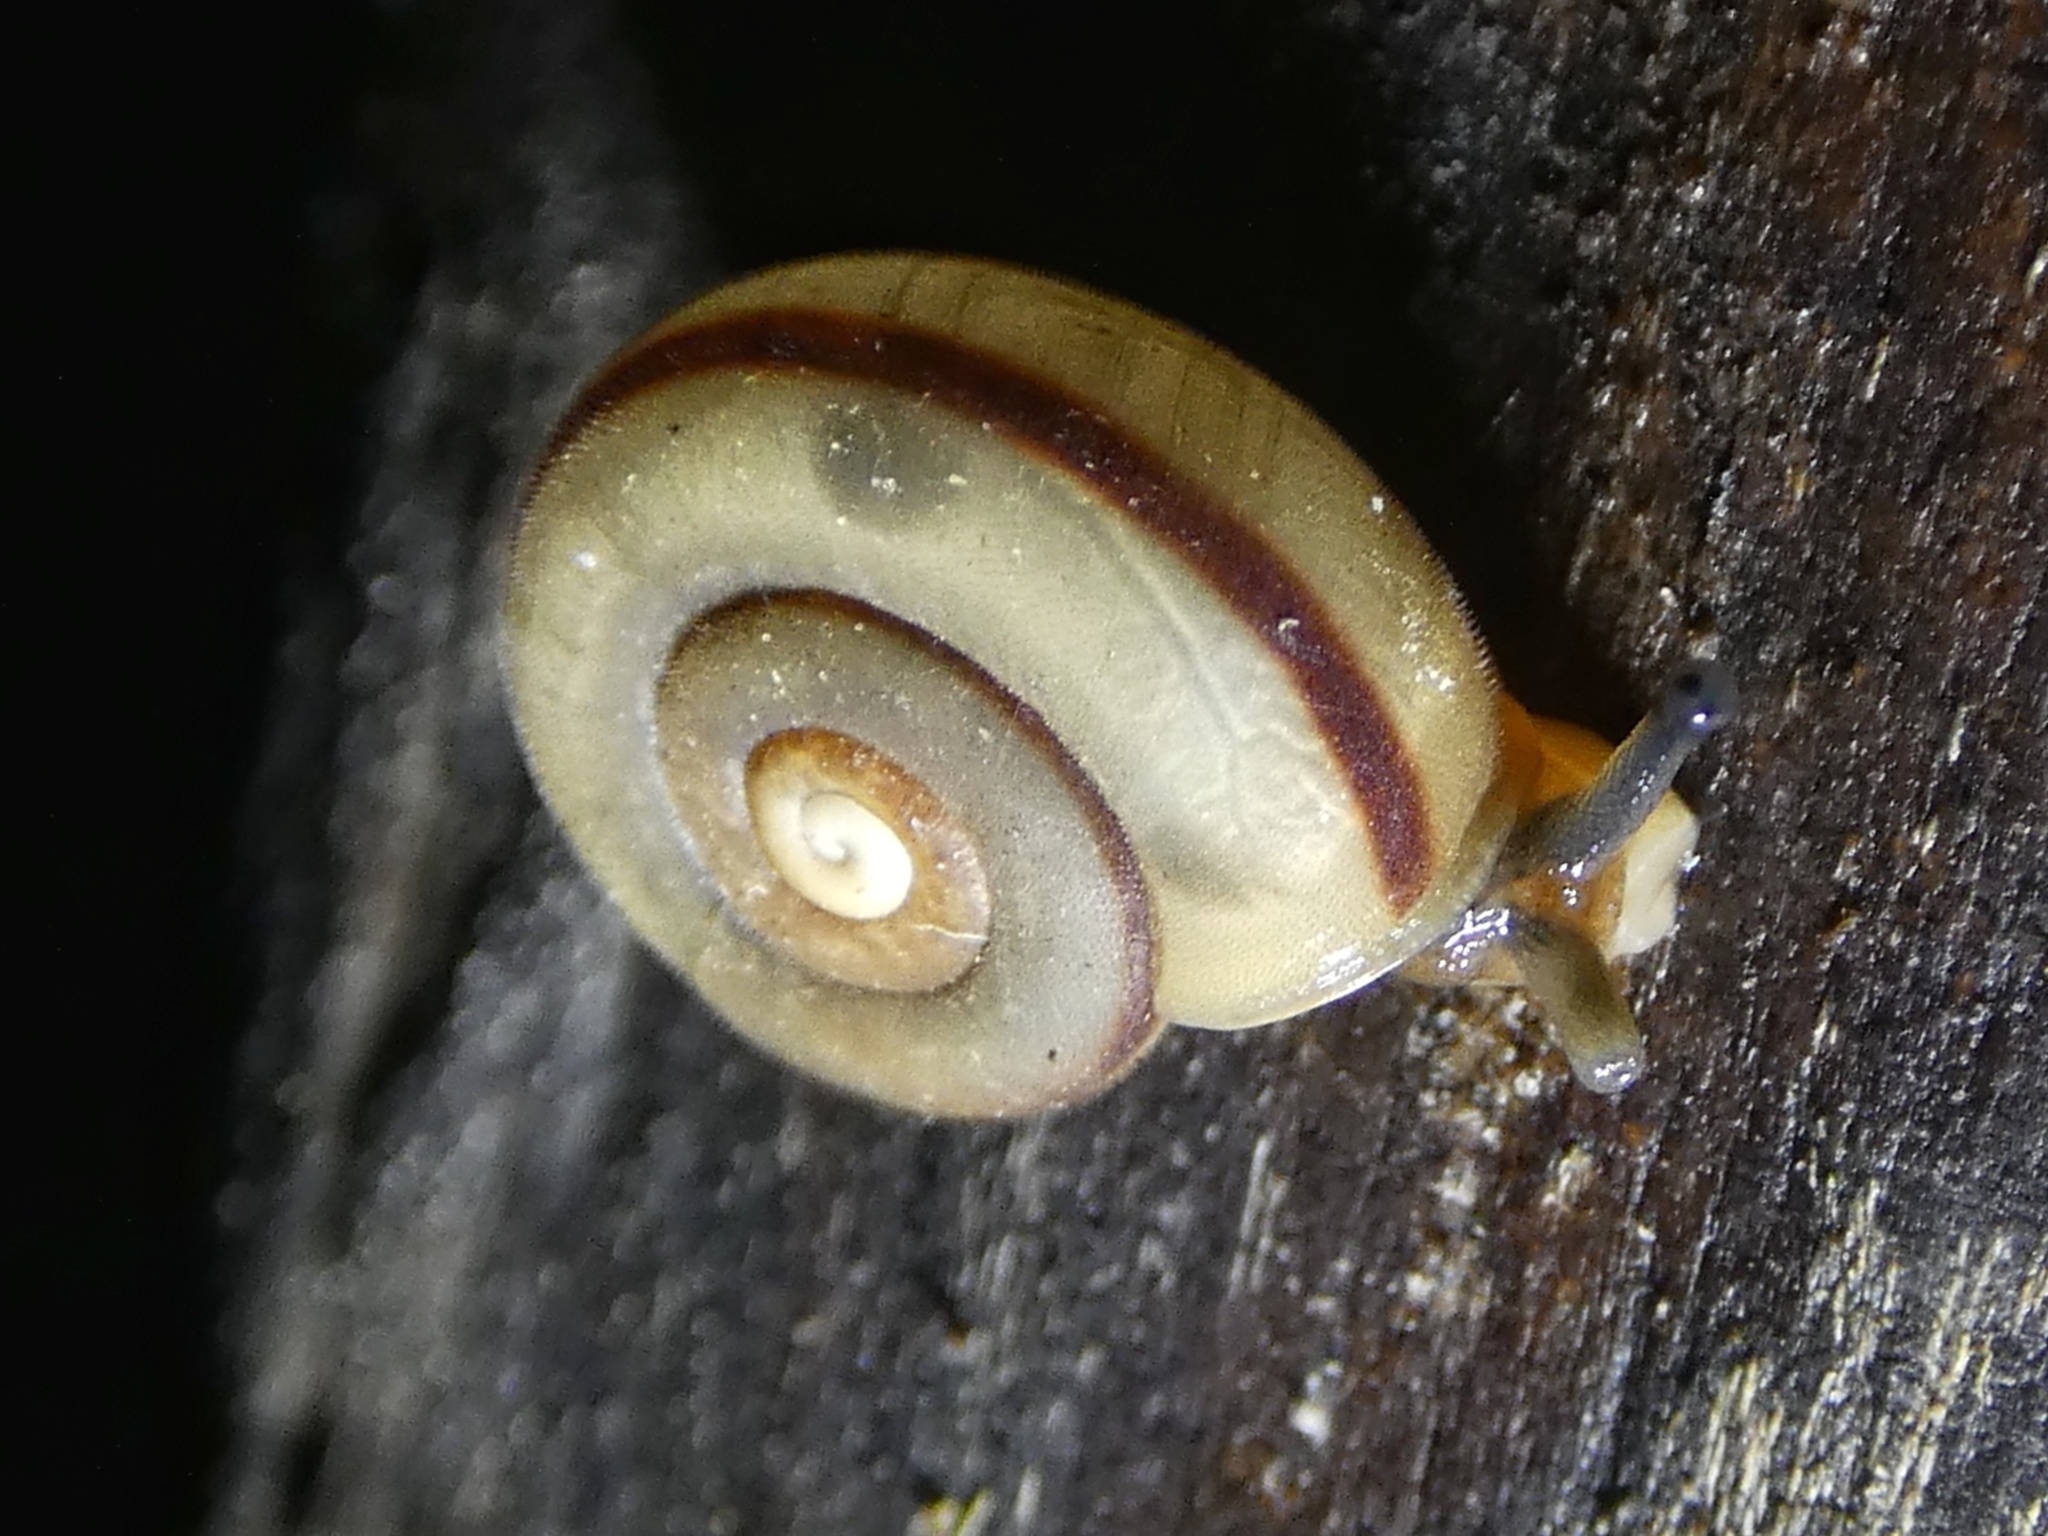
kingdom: Animalia
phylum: Mollusca
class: Gastropoda
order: Stylommatophora
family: Camaenidae
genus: Protolinitis
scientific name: Protolinitis terriirwinae
